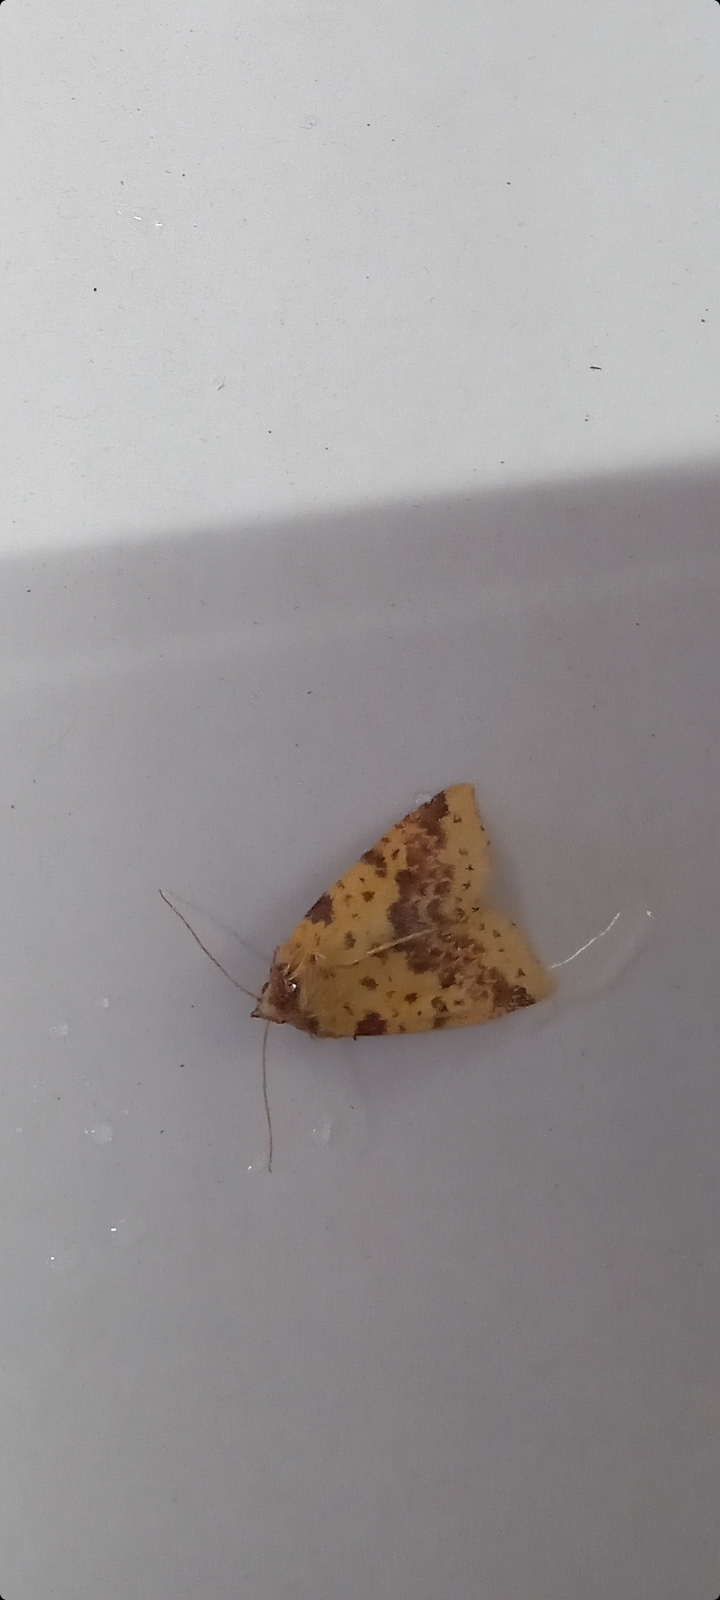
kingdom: Animalia
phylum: Arthropoda
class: Insecta
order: Lepidoptera
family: Noctuidae
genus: Xanthia
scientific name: Xanthia togata
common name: Pink-barred sallow
